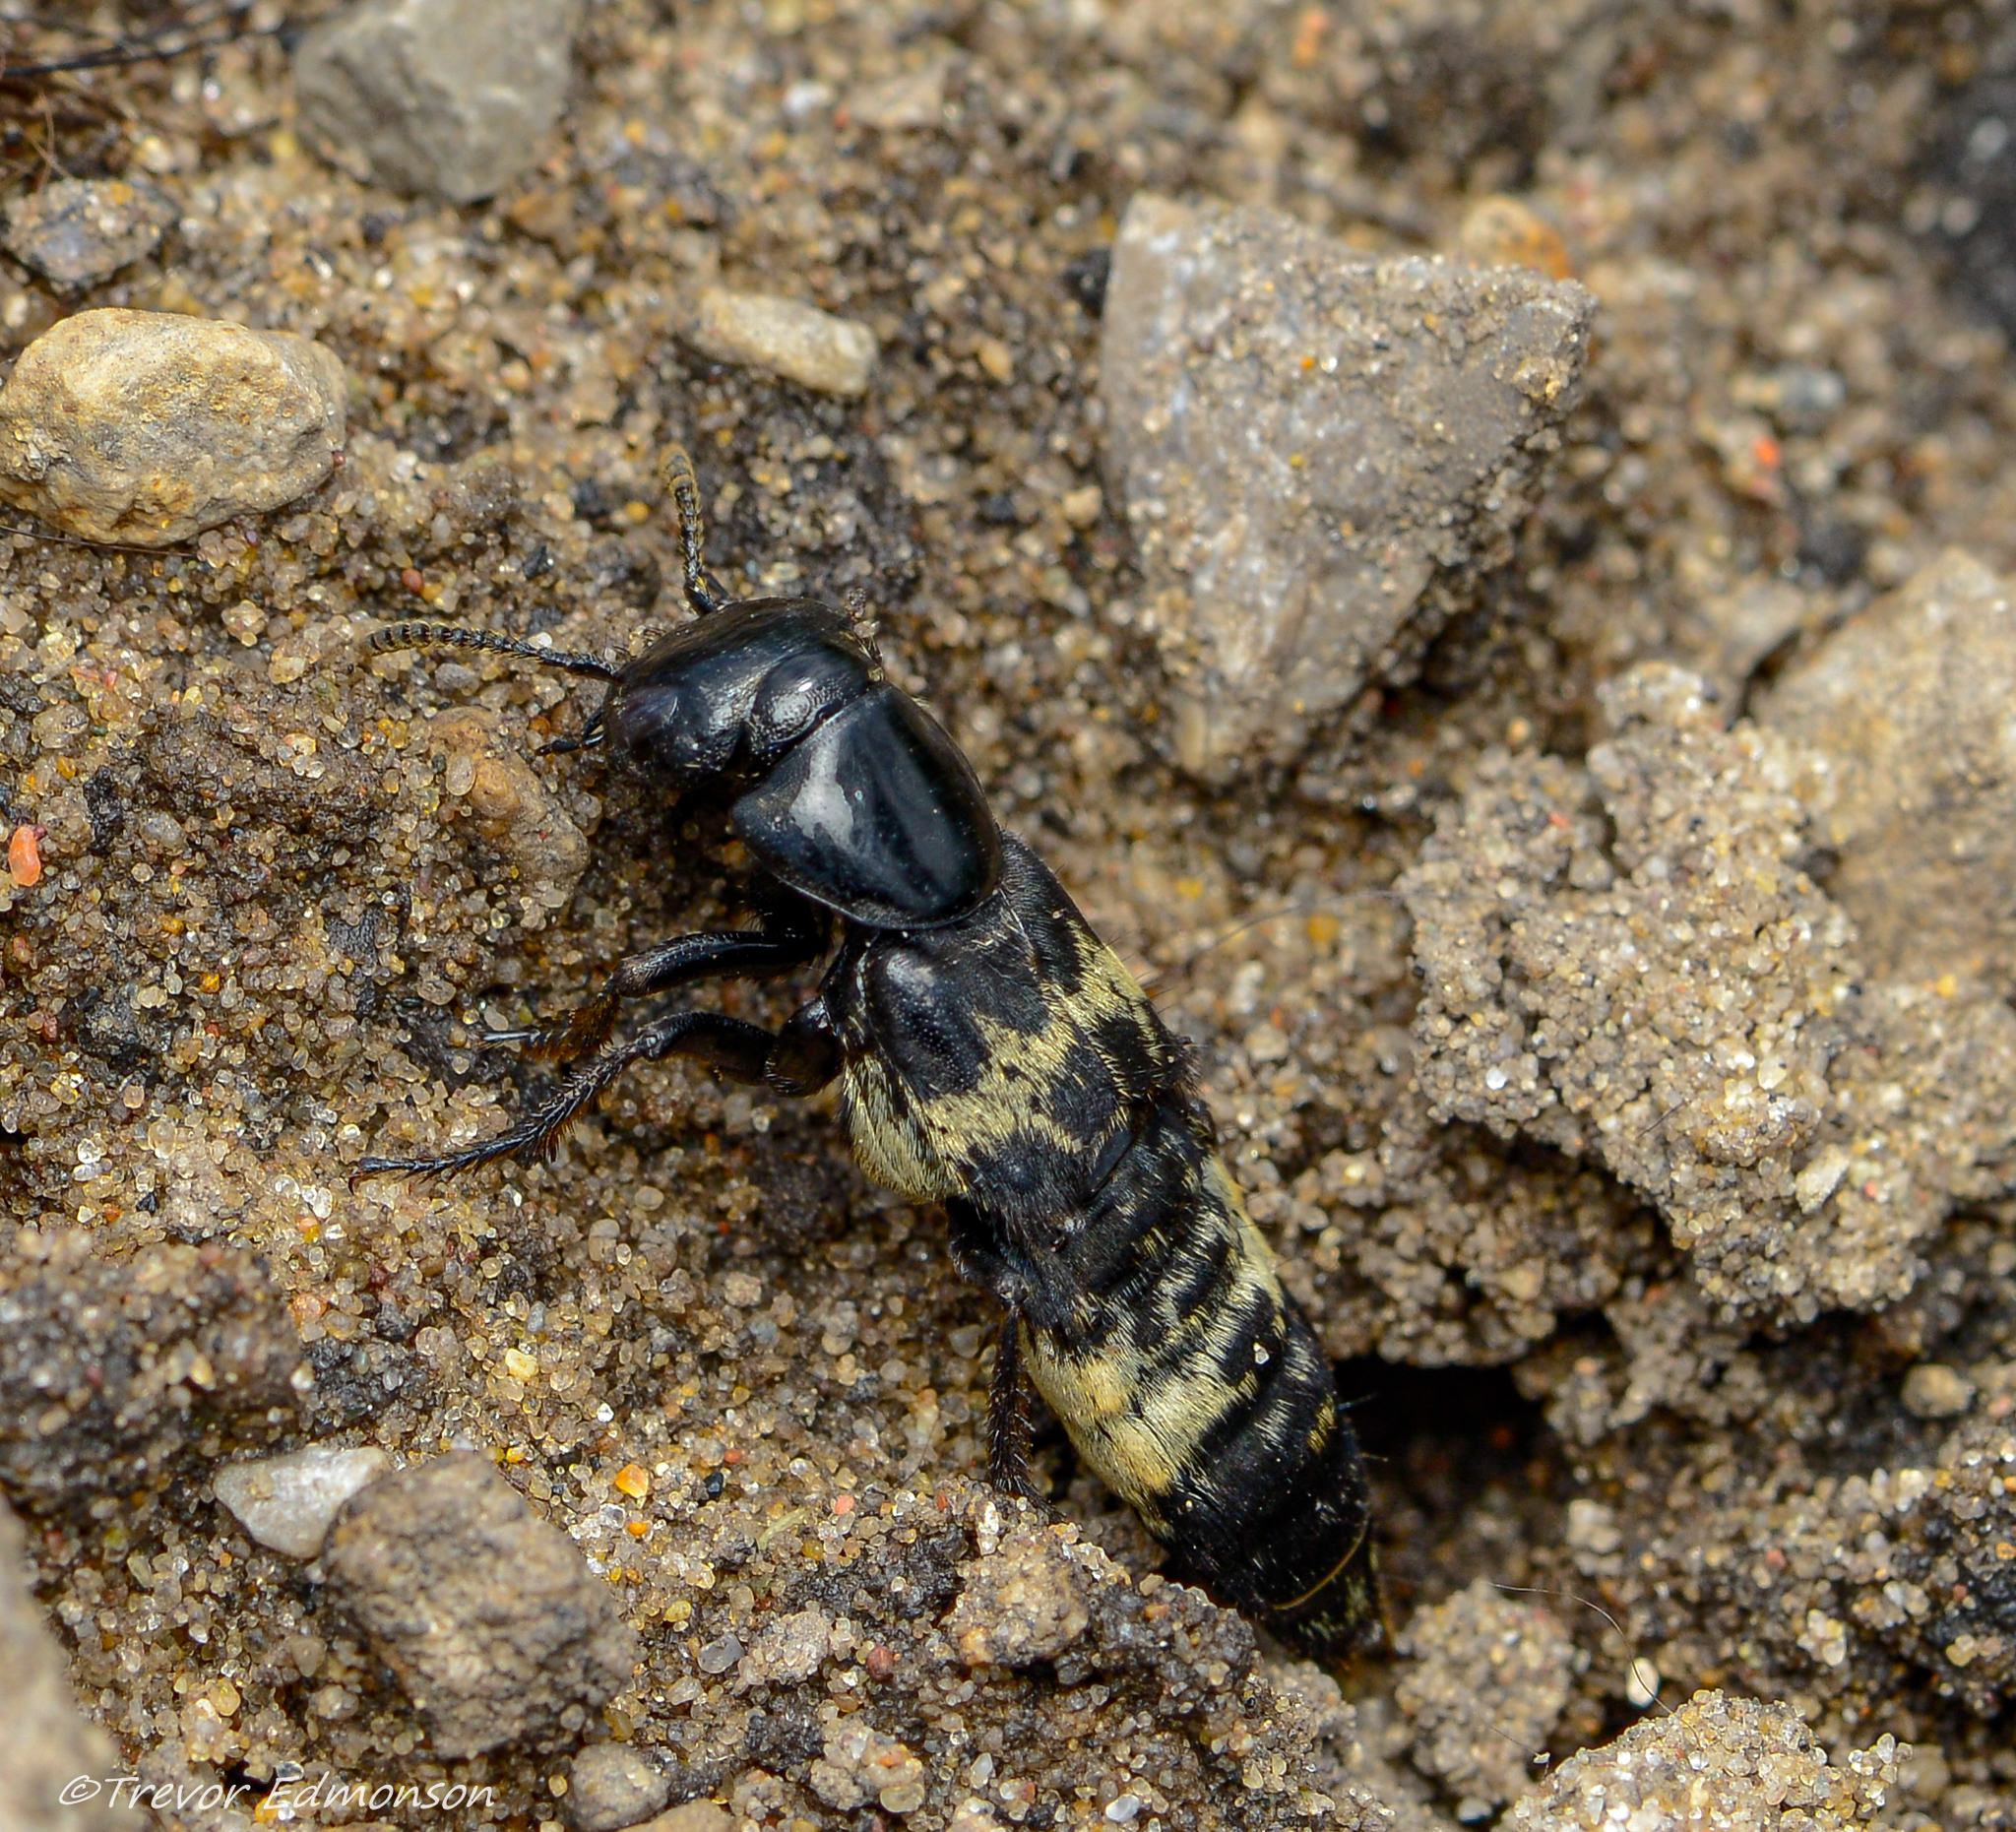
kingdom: Animalia
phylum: Arthropoda
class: Insecta
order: Coleoptera
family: Staphylinidae
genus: Creophilus
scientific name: Creophilus maxillosus
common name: Hairy rove beetle
